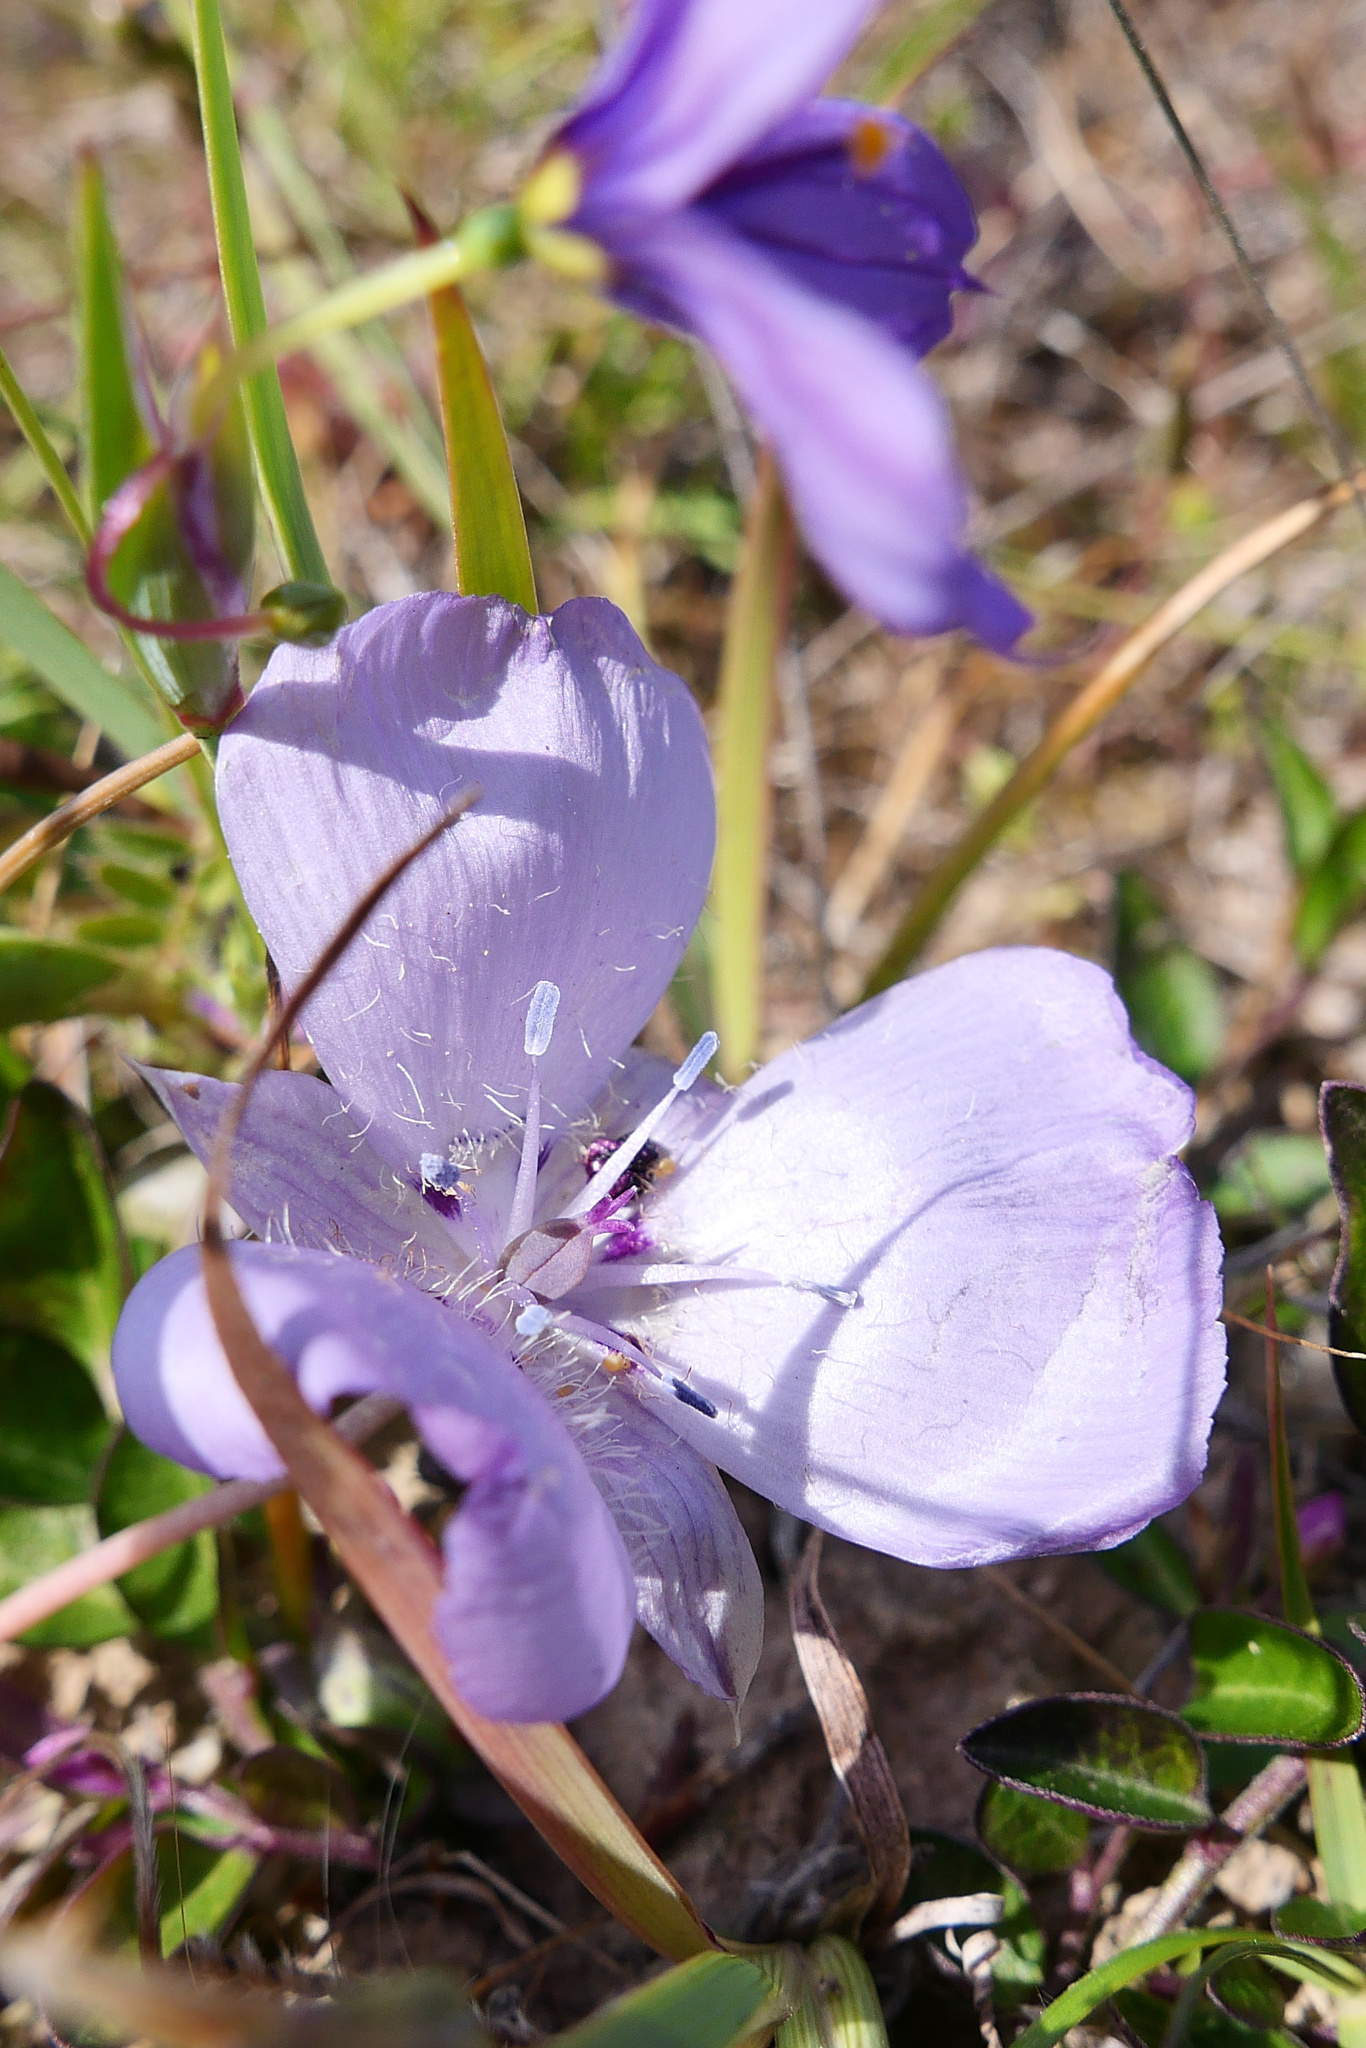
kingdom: Plantae
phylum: Tracheophyta
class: Liliopsida
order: Liliales
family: Liliaceae
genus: Calochortus
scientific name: Calochortus uniflorus
